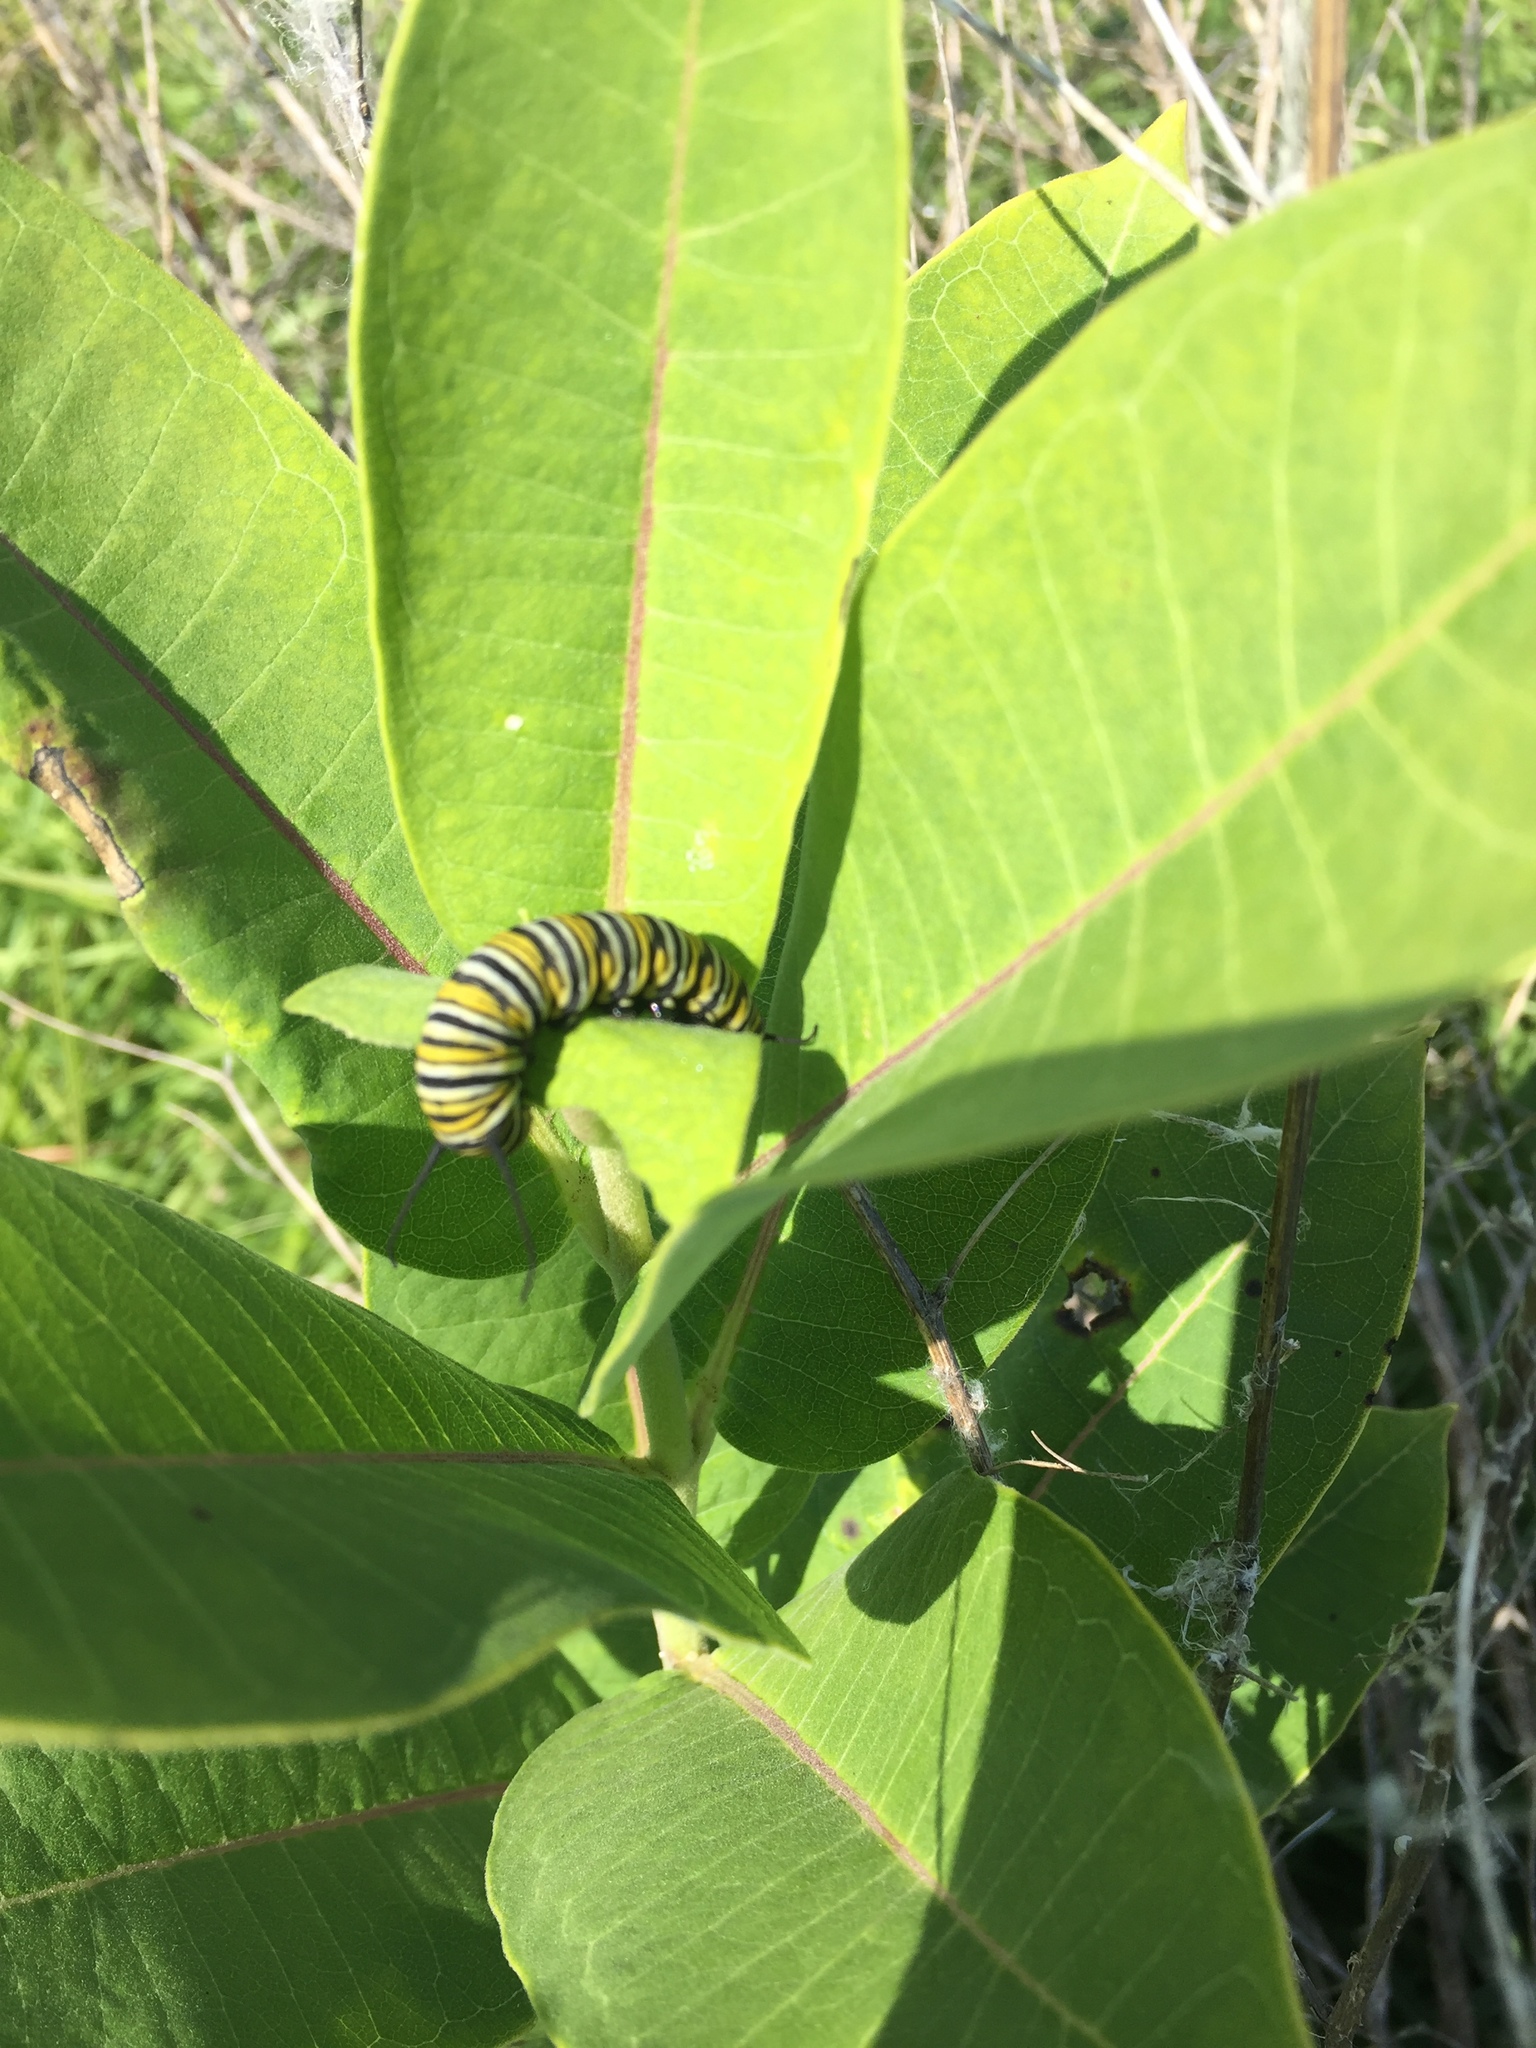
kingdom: Animalia
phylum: Arthropoda
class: Insecta
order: Lepidoptera
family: Nymphalidae
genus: Danaus
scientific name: Danaus plexippus
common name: Monarch
